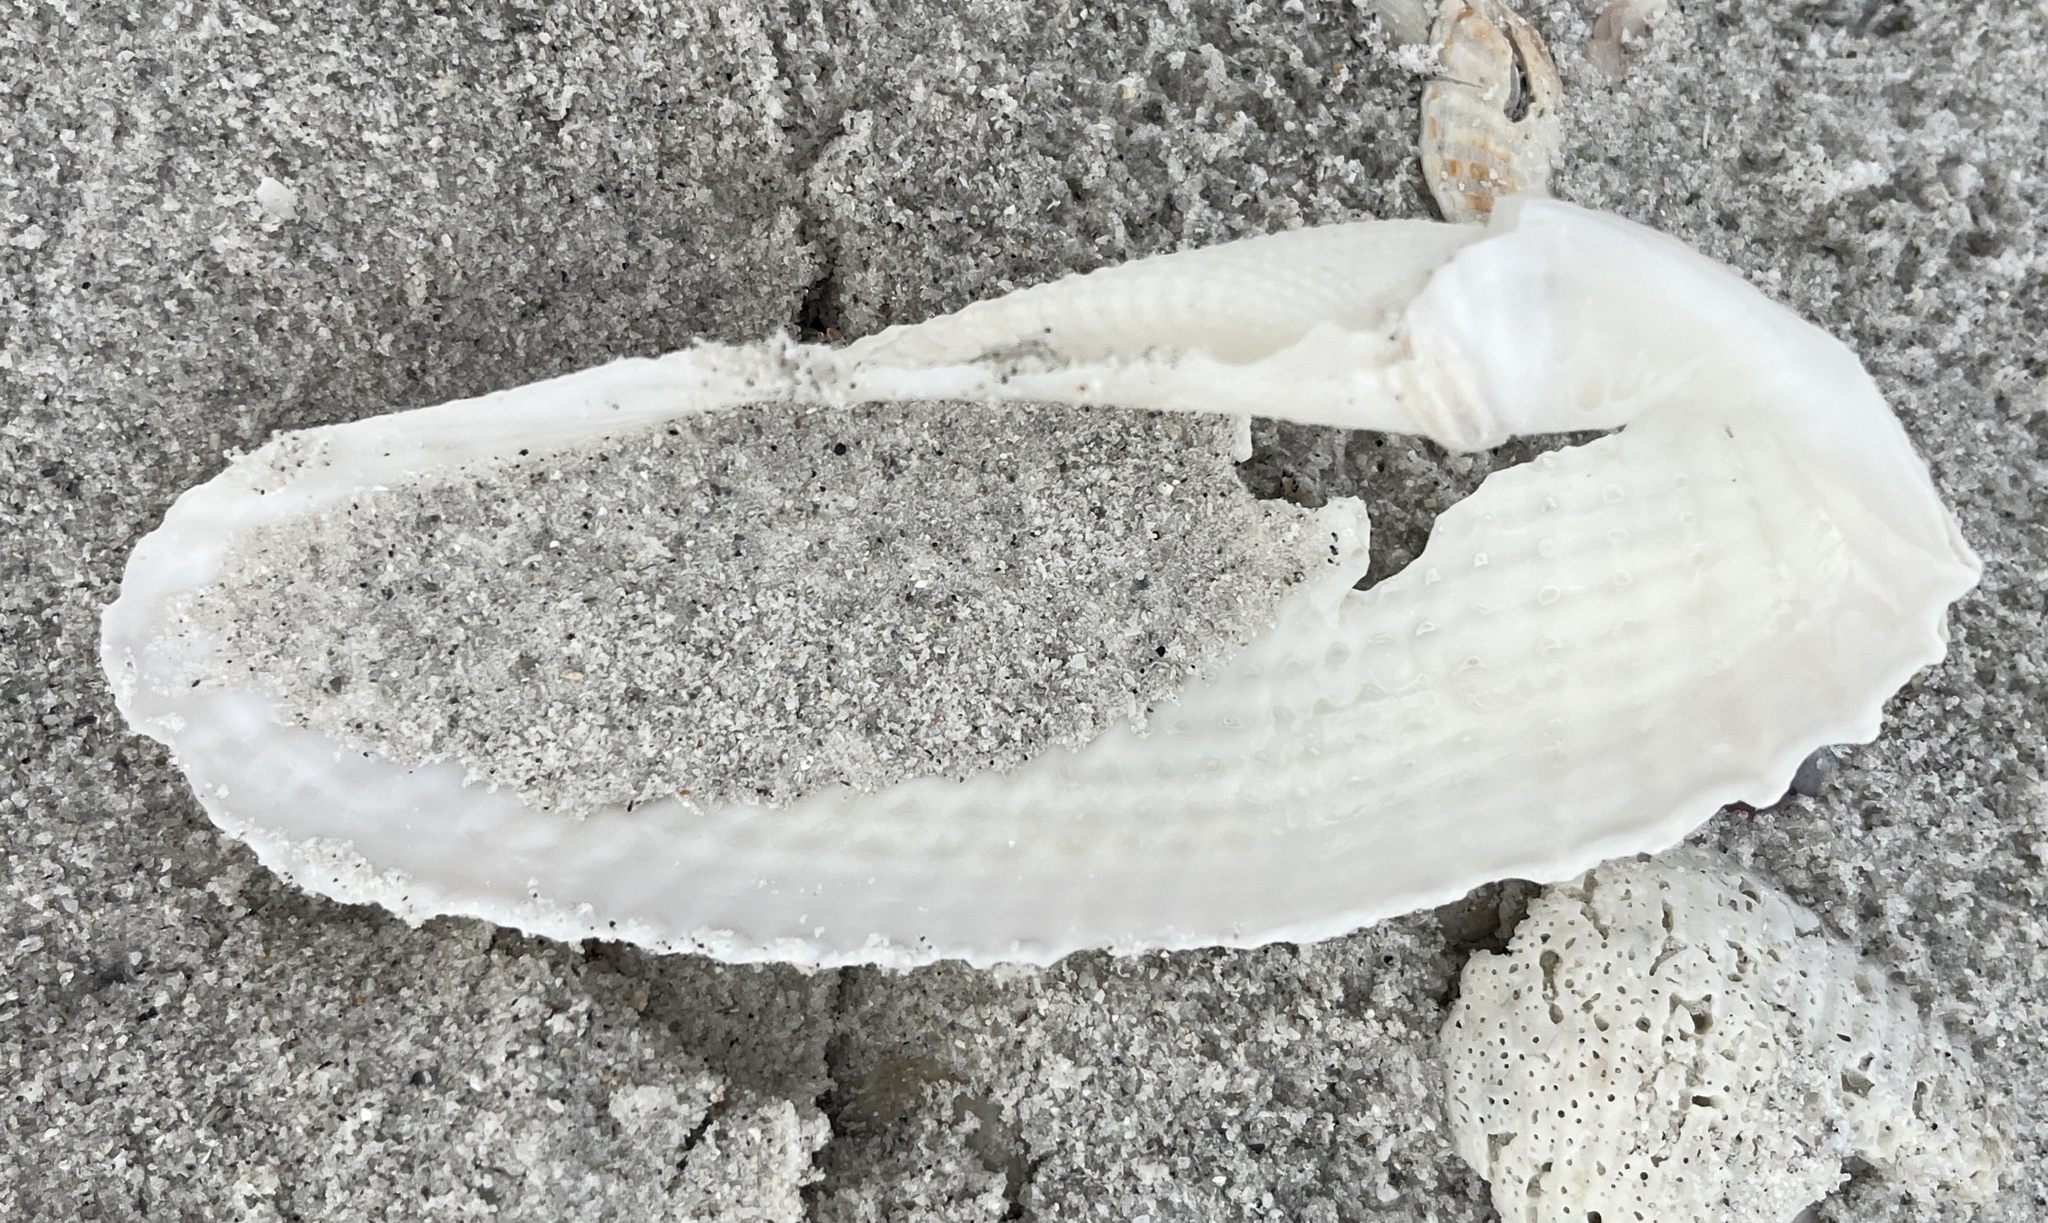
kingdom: Animalia
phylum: Mollusca
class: Bivalvia
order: Myida
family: Pholadidae
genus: Cyrtopleura
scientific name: Cyrtopleura costata
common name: Angel wing
